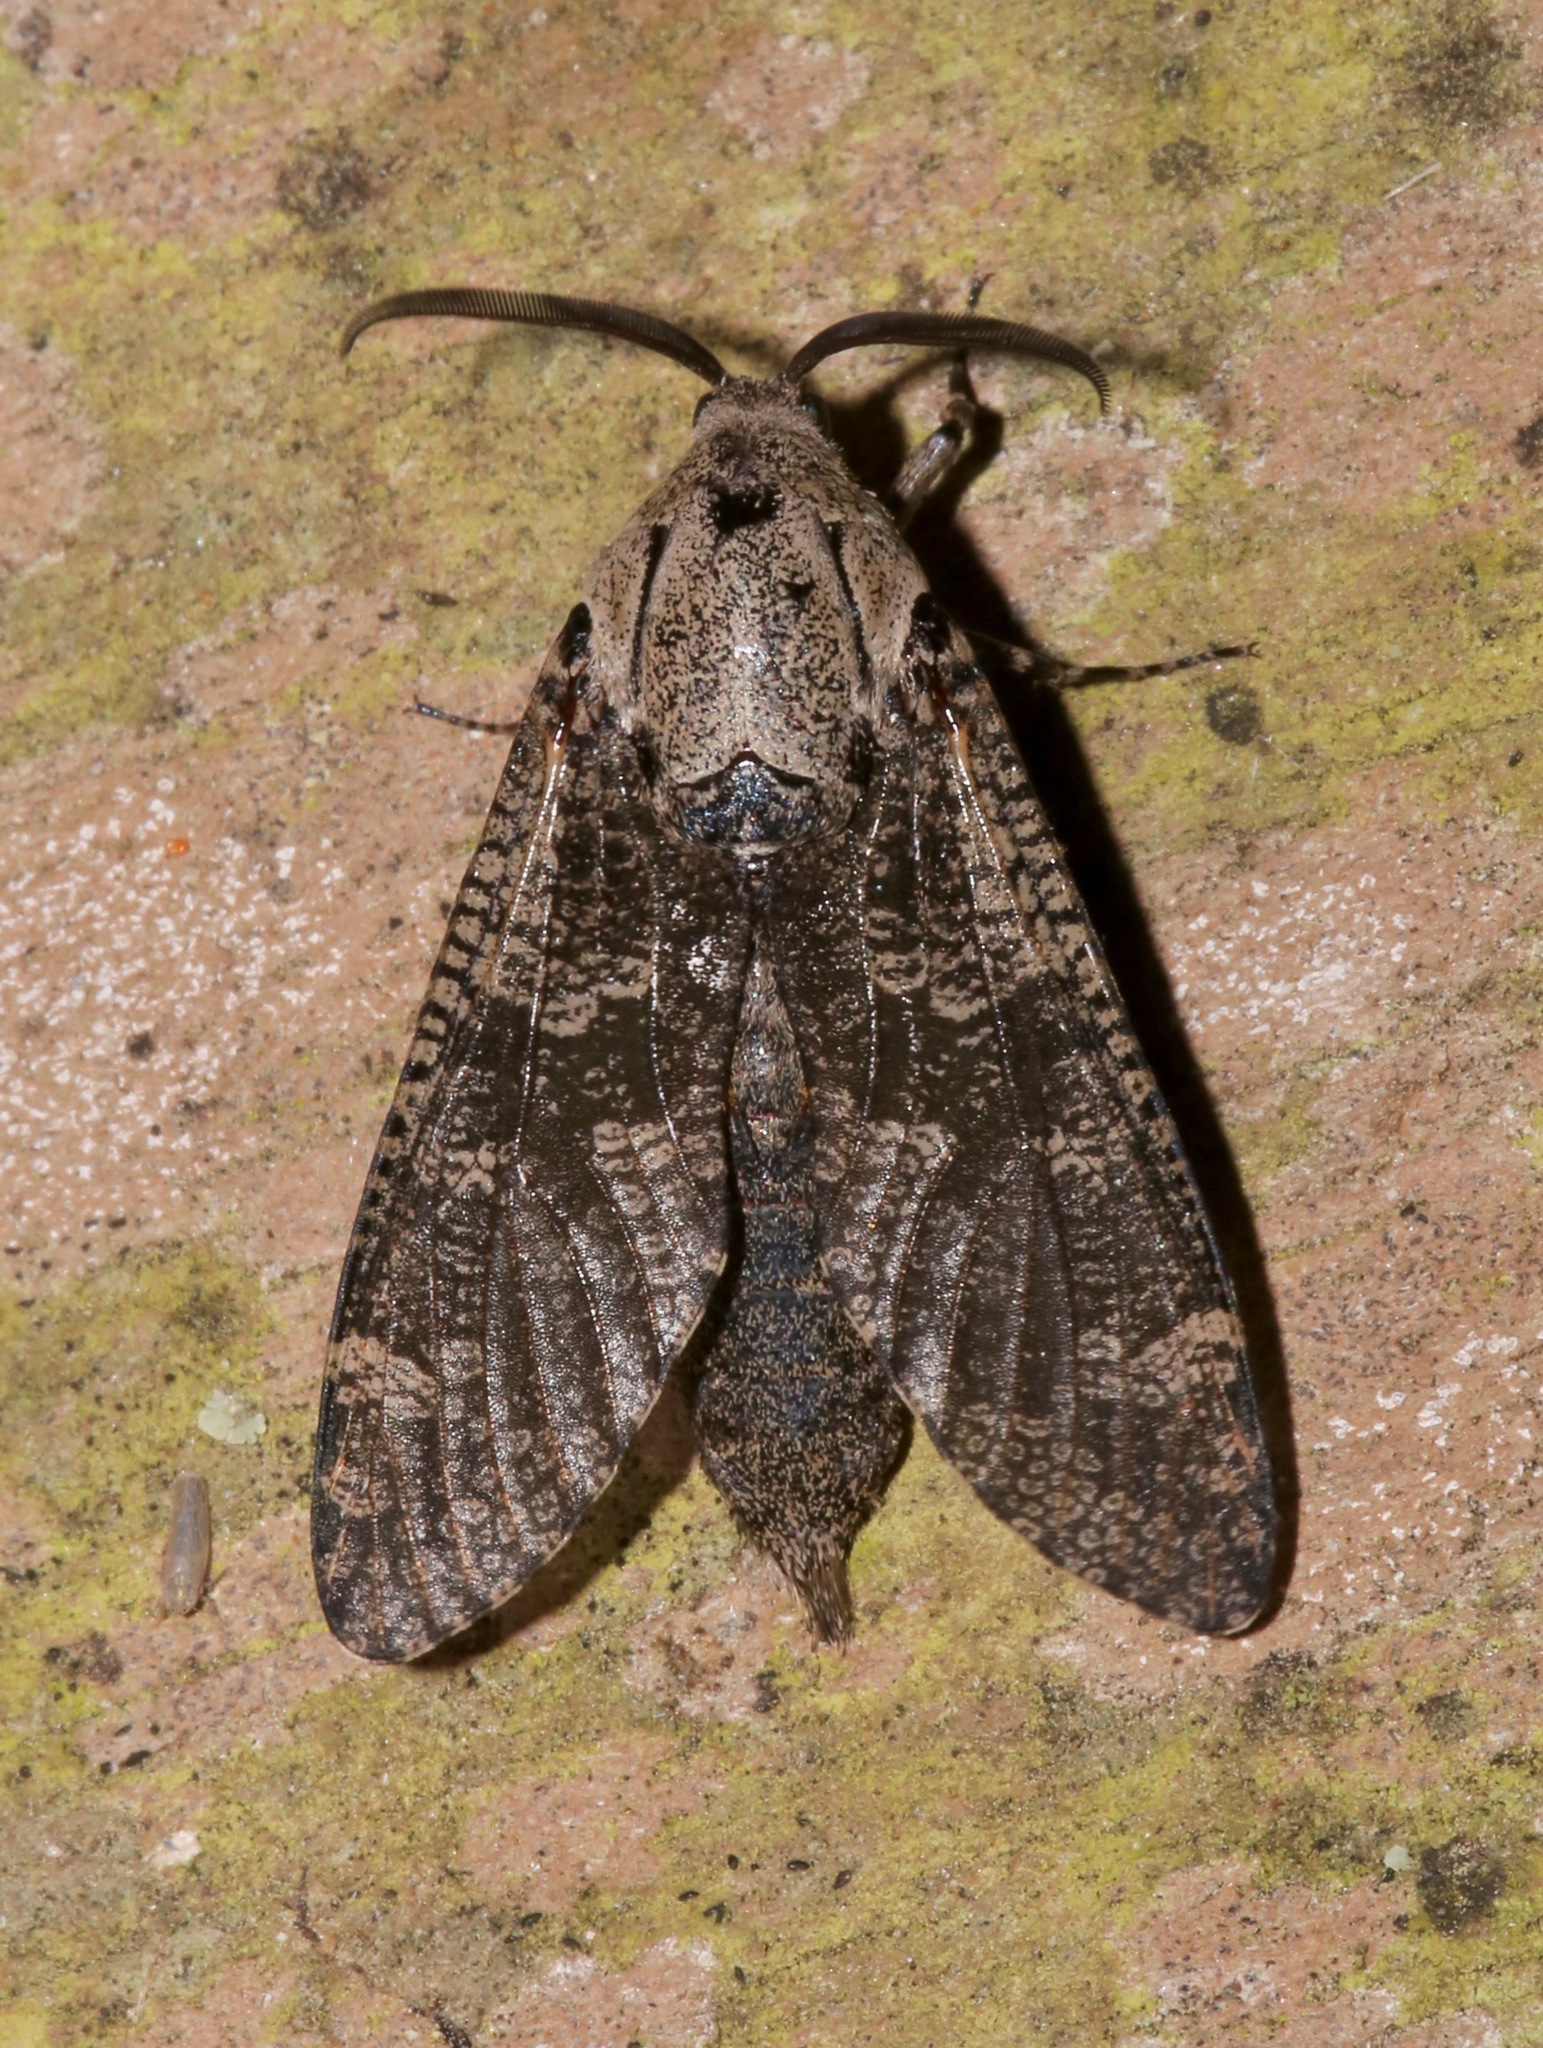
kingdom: Animalia
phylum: Arthropoda
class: Insecta
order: Lepidoptera
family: Cossidae
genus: Prionoxystus
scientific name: Prionoxystus robiniae
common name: Carpenterworm
